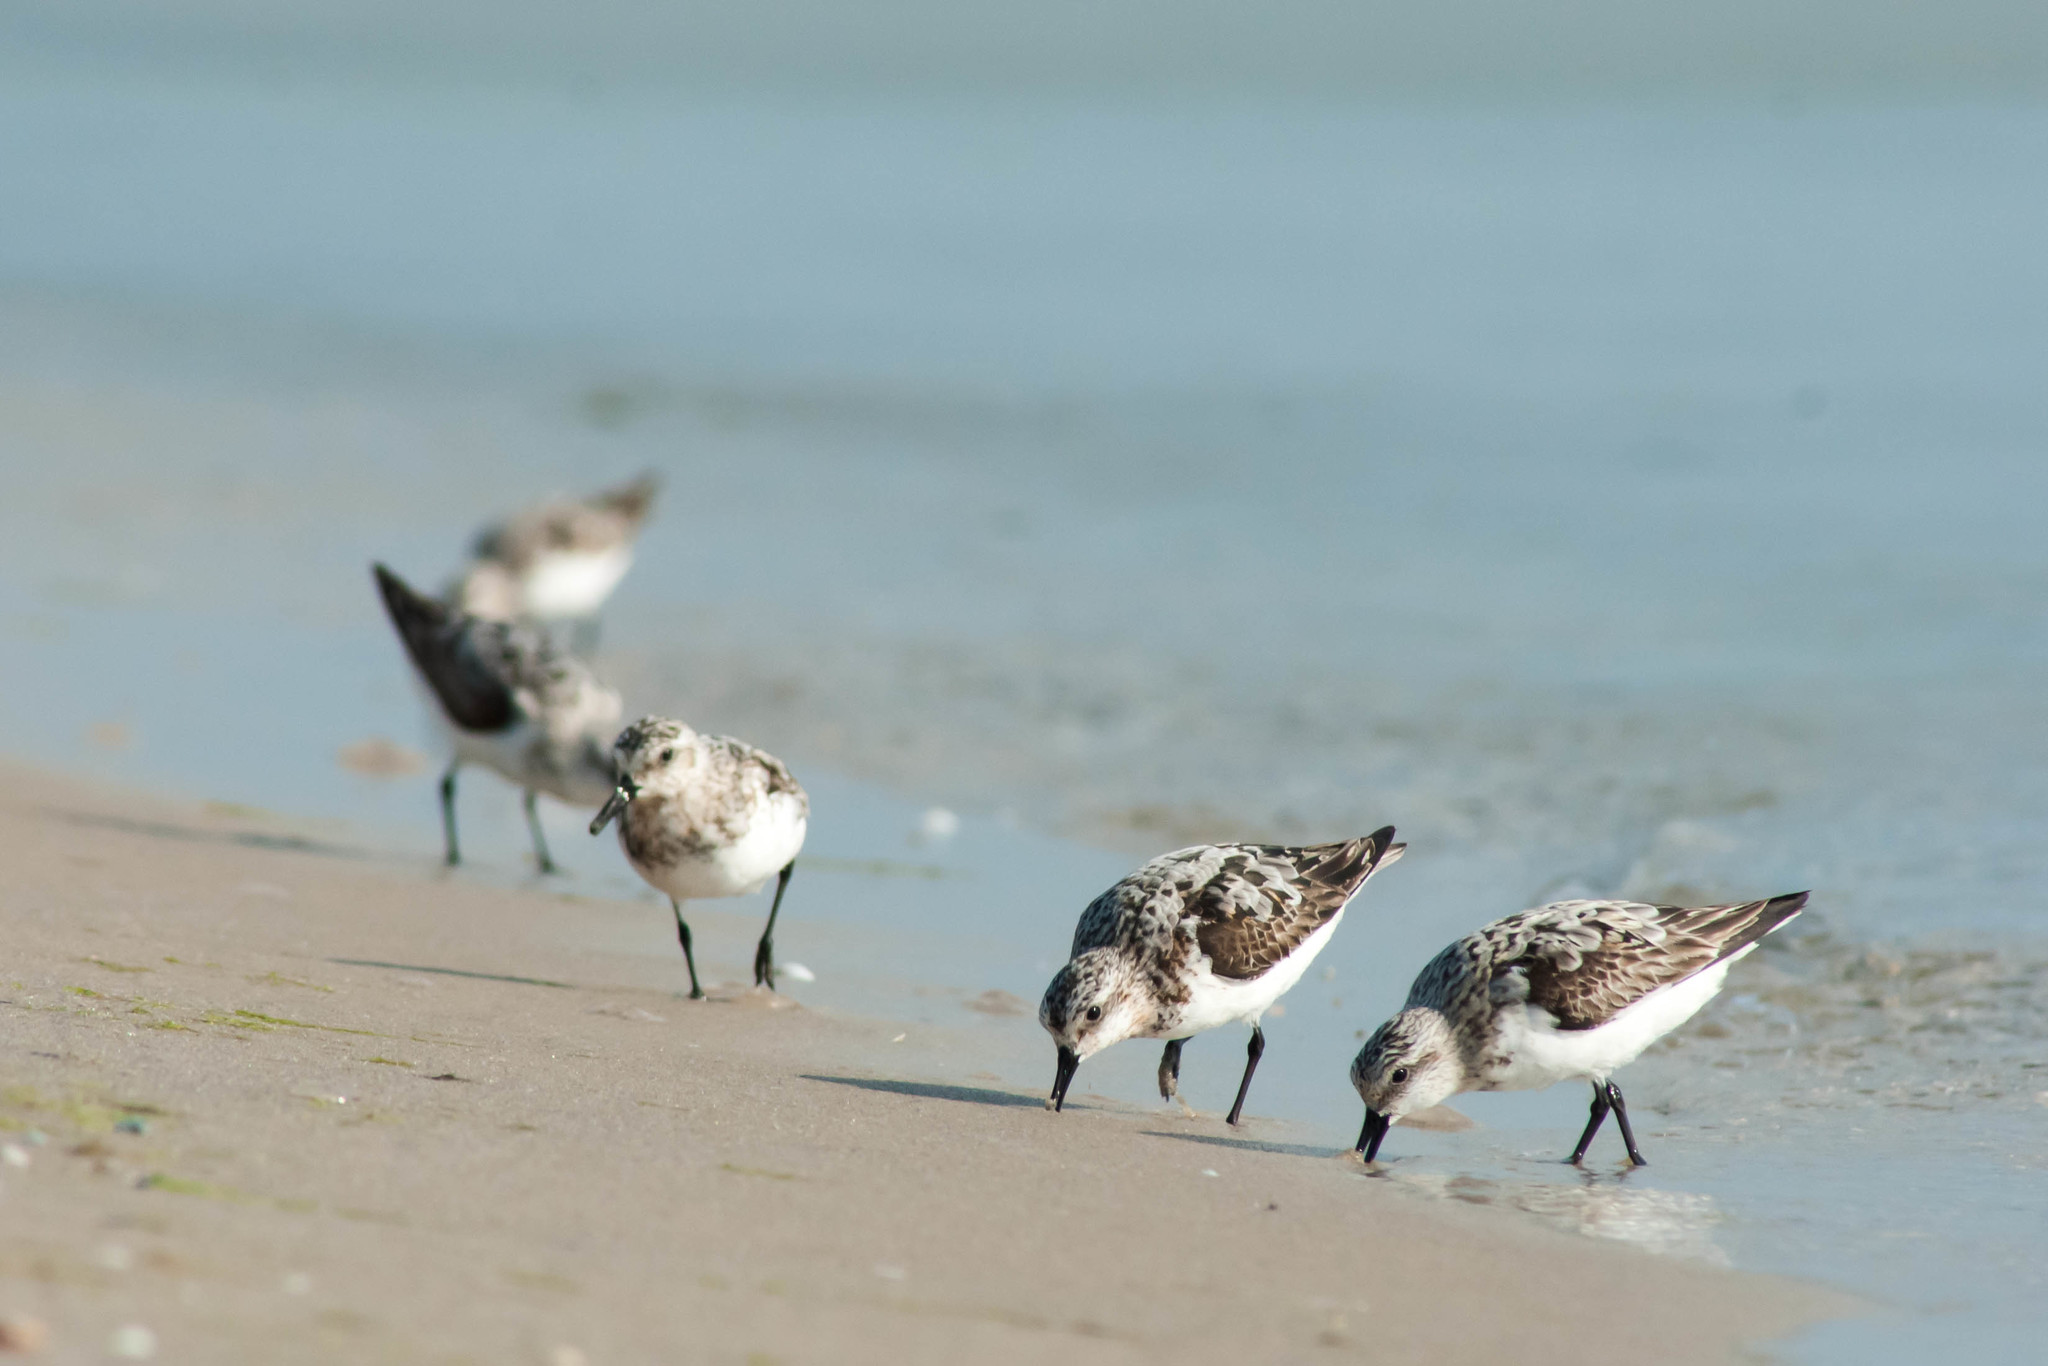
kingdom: Animalia
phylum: Chordata
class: Aves
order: Charadriiformes
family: Scolopacidae
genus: Calidris
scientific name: Calidris alba
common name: Sanderling
